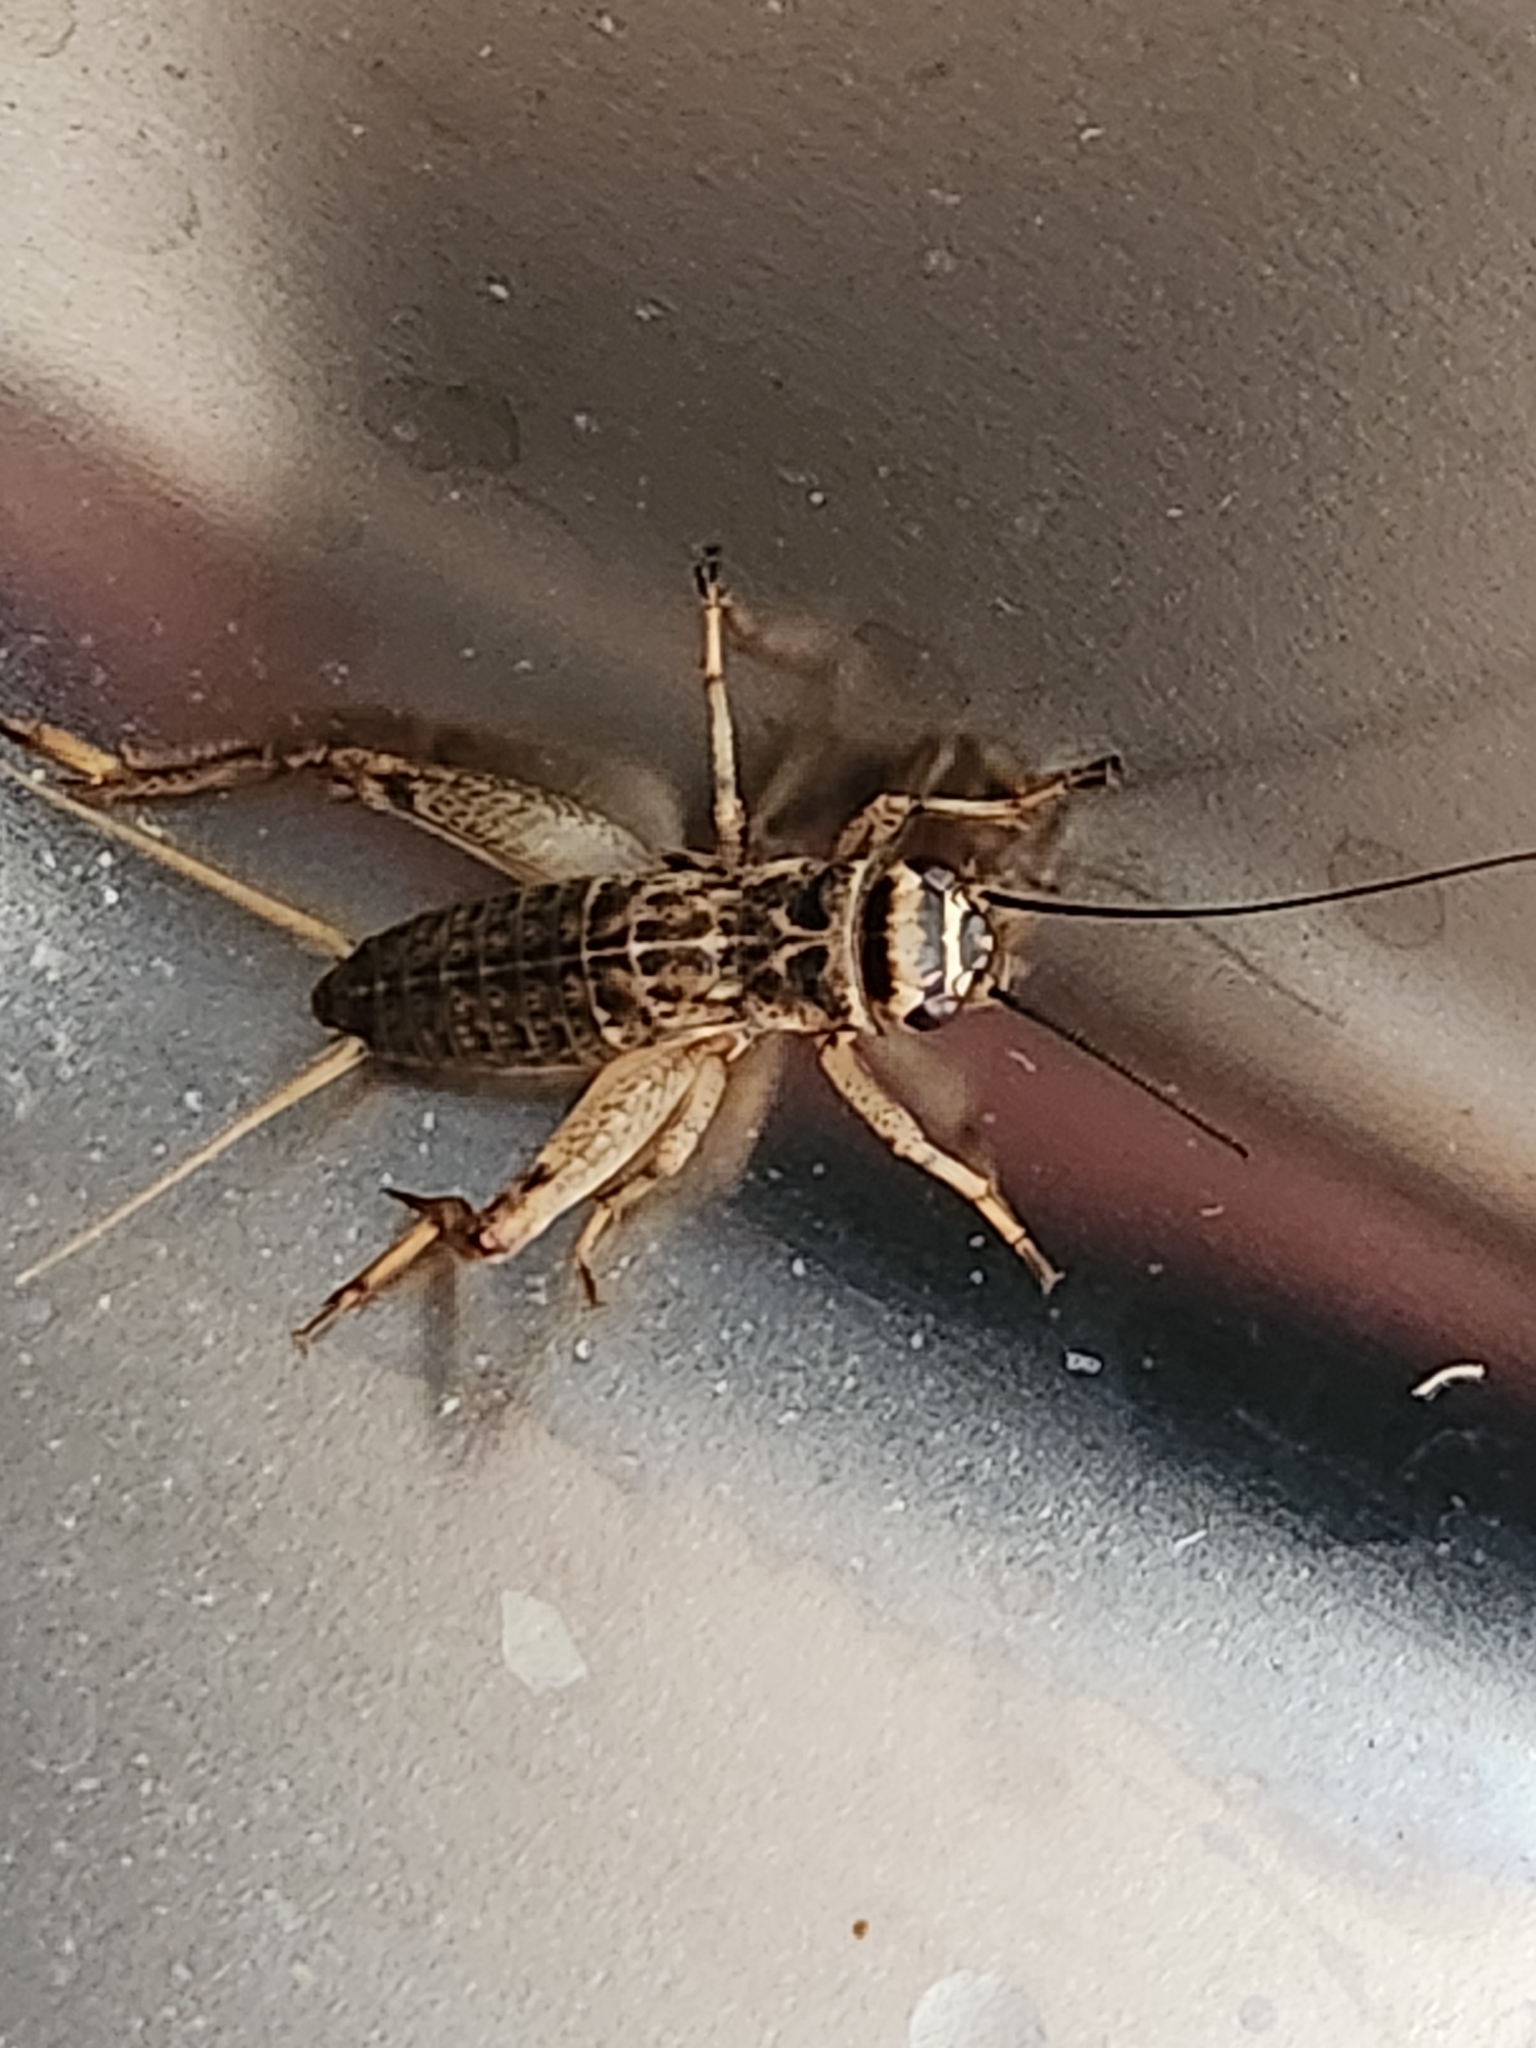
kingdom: Animalia
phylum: Arthropoda
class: Insecta
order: Orthoptera
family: Gryllidae
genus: Acheta
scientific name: Acheta domesticus
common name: House cricket
